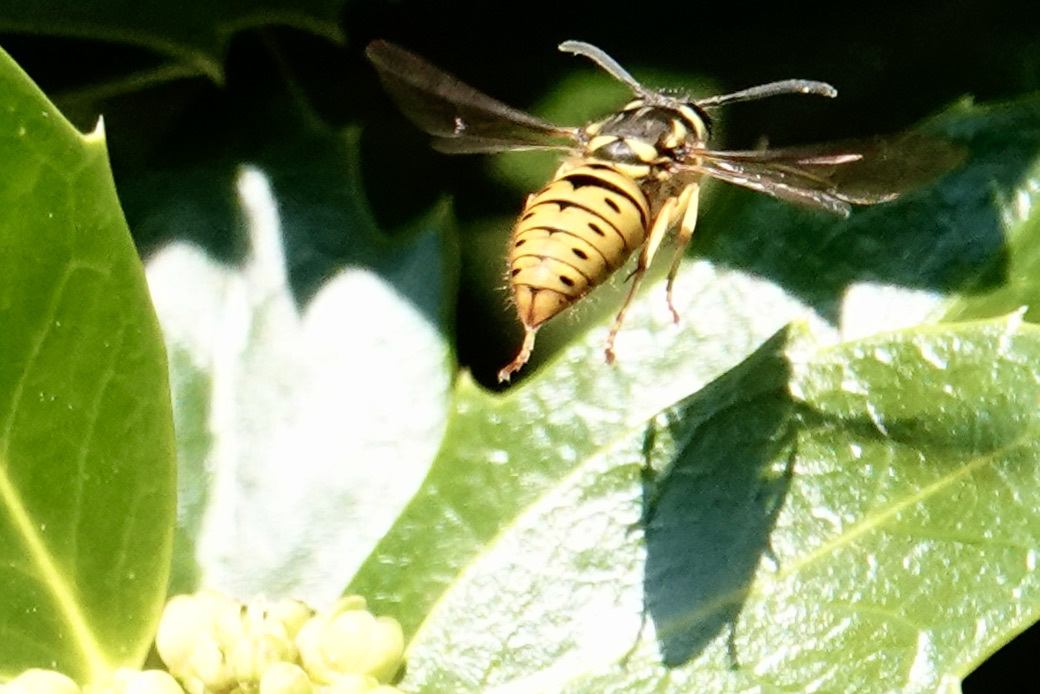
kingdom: Animalia
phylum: Arthropoda
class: Insecta
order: Hymenoptera
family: Vespidae
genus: Vespula
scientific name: Vespula maculifrons
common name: Eastern yellowjacket
